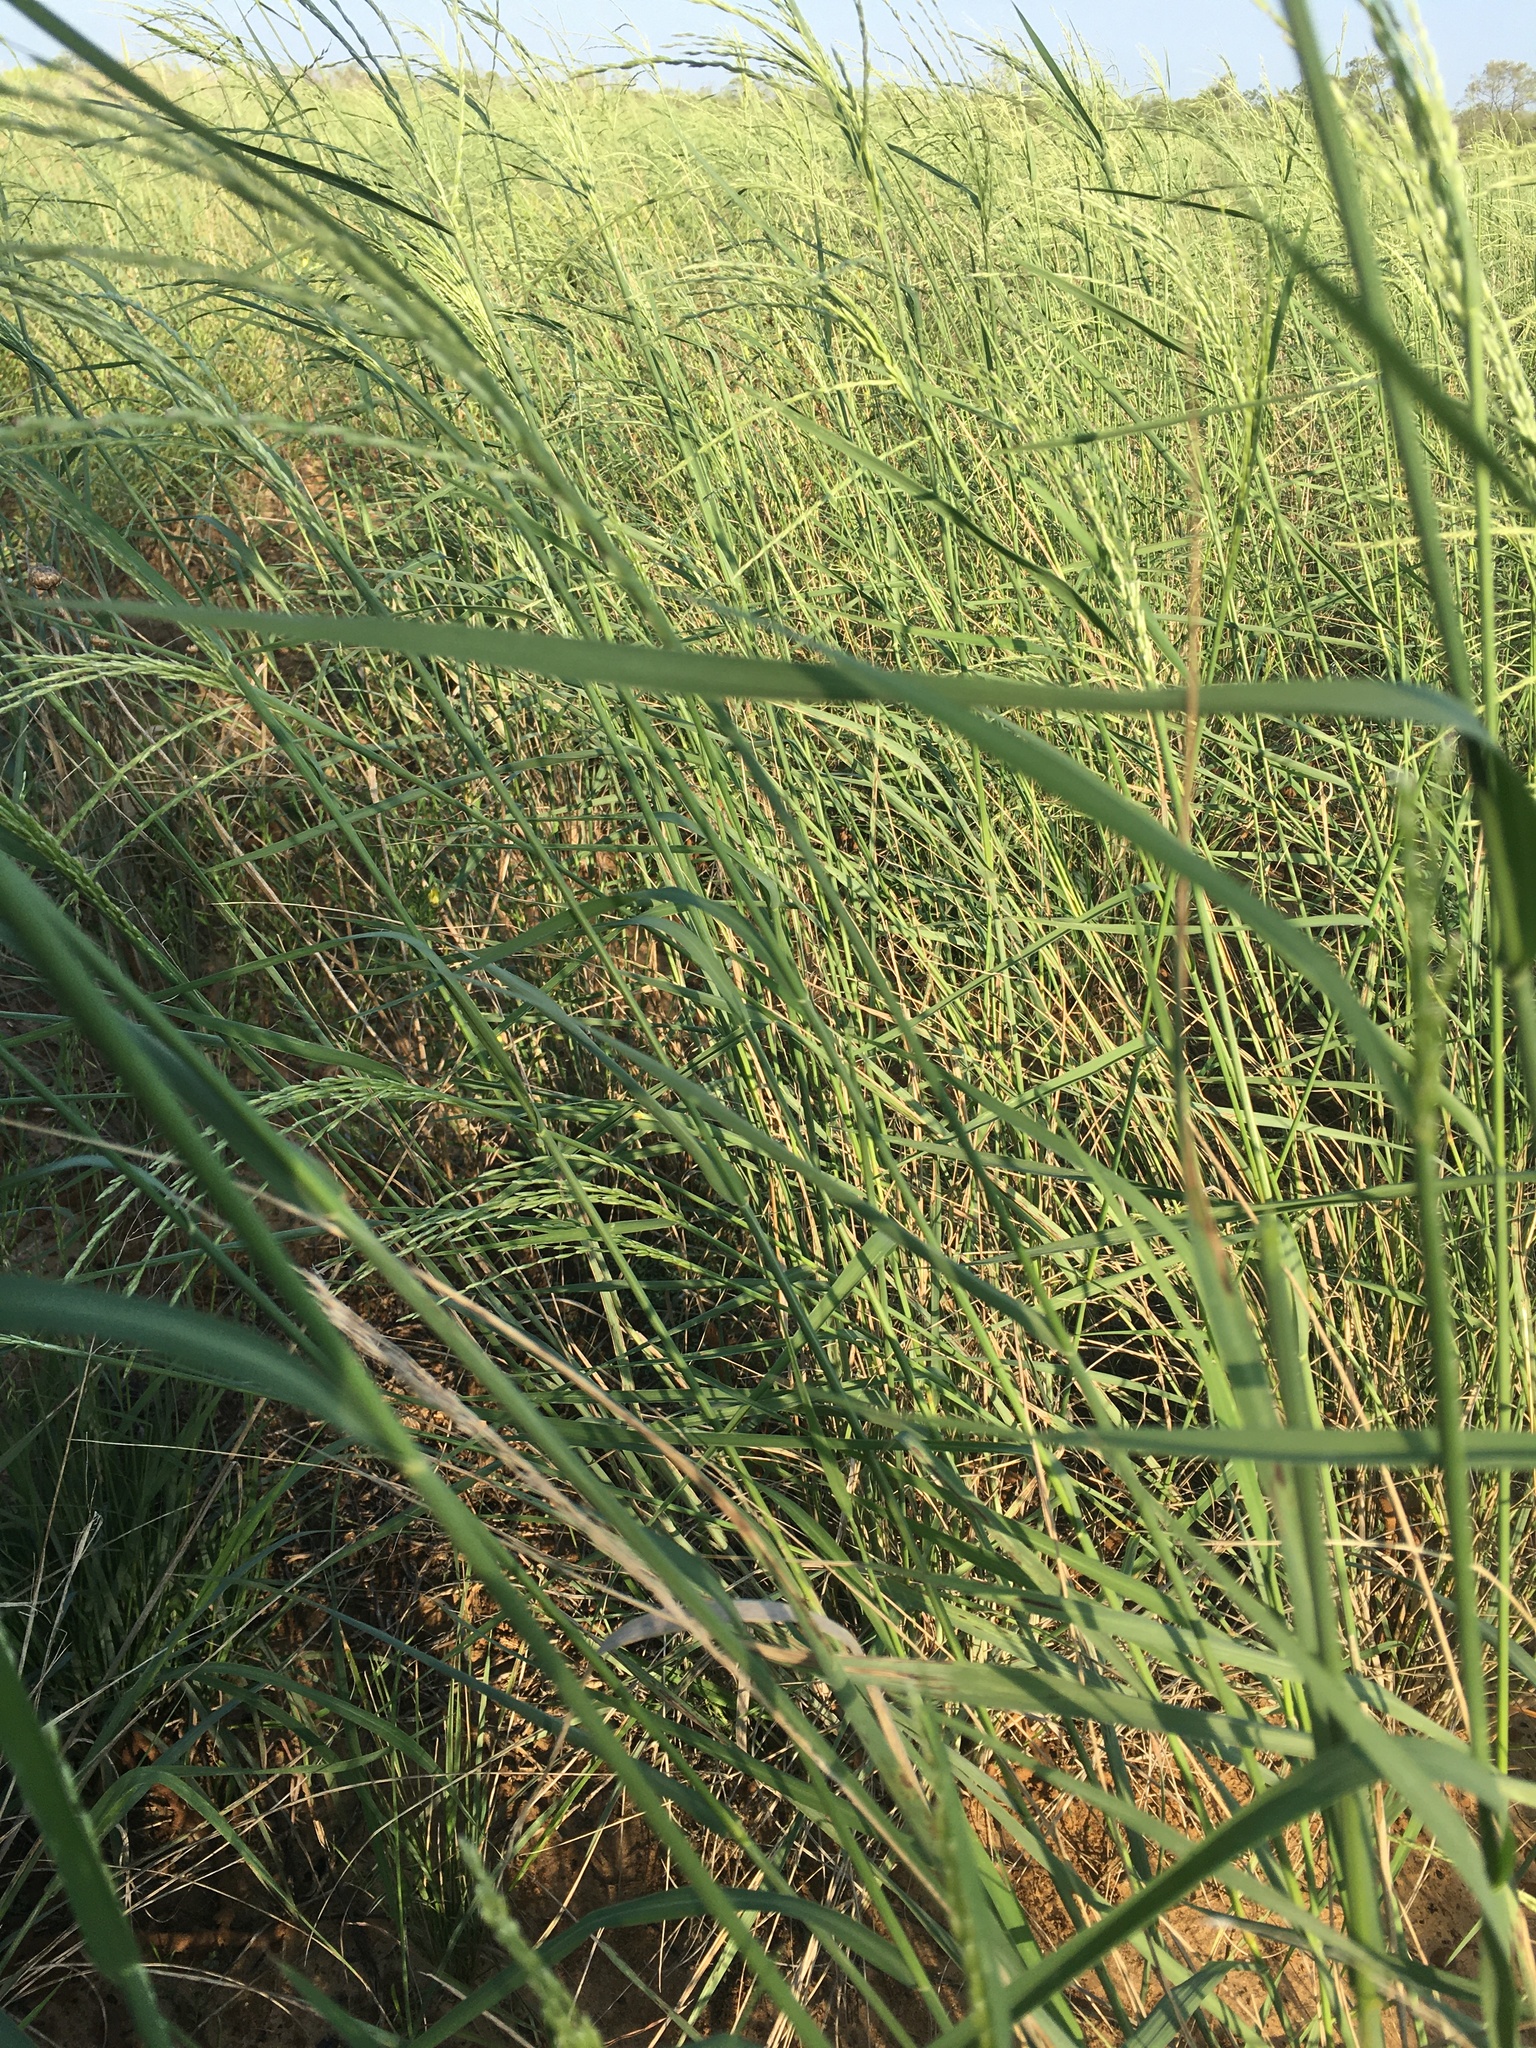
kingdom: Plantae
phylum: Tracheophyta
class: Liliopsida
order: Poales
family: Poaceae
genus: Disakisperma
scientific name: Disakisperma dubium
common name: Green sprangletop
